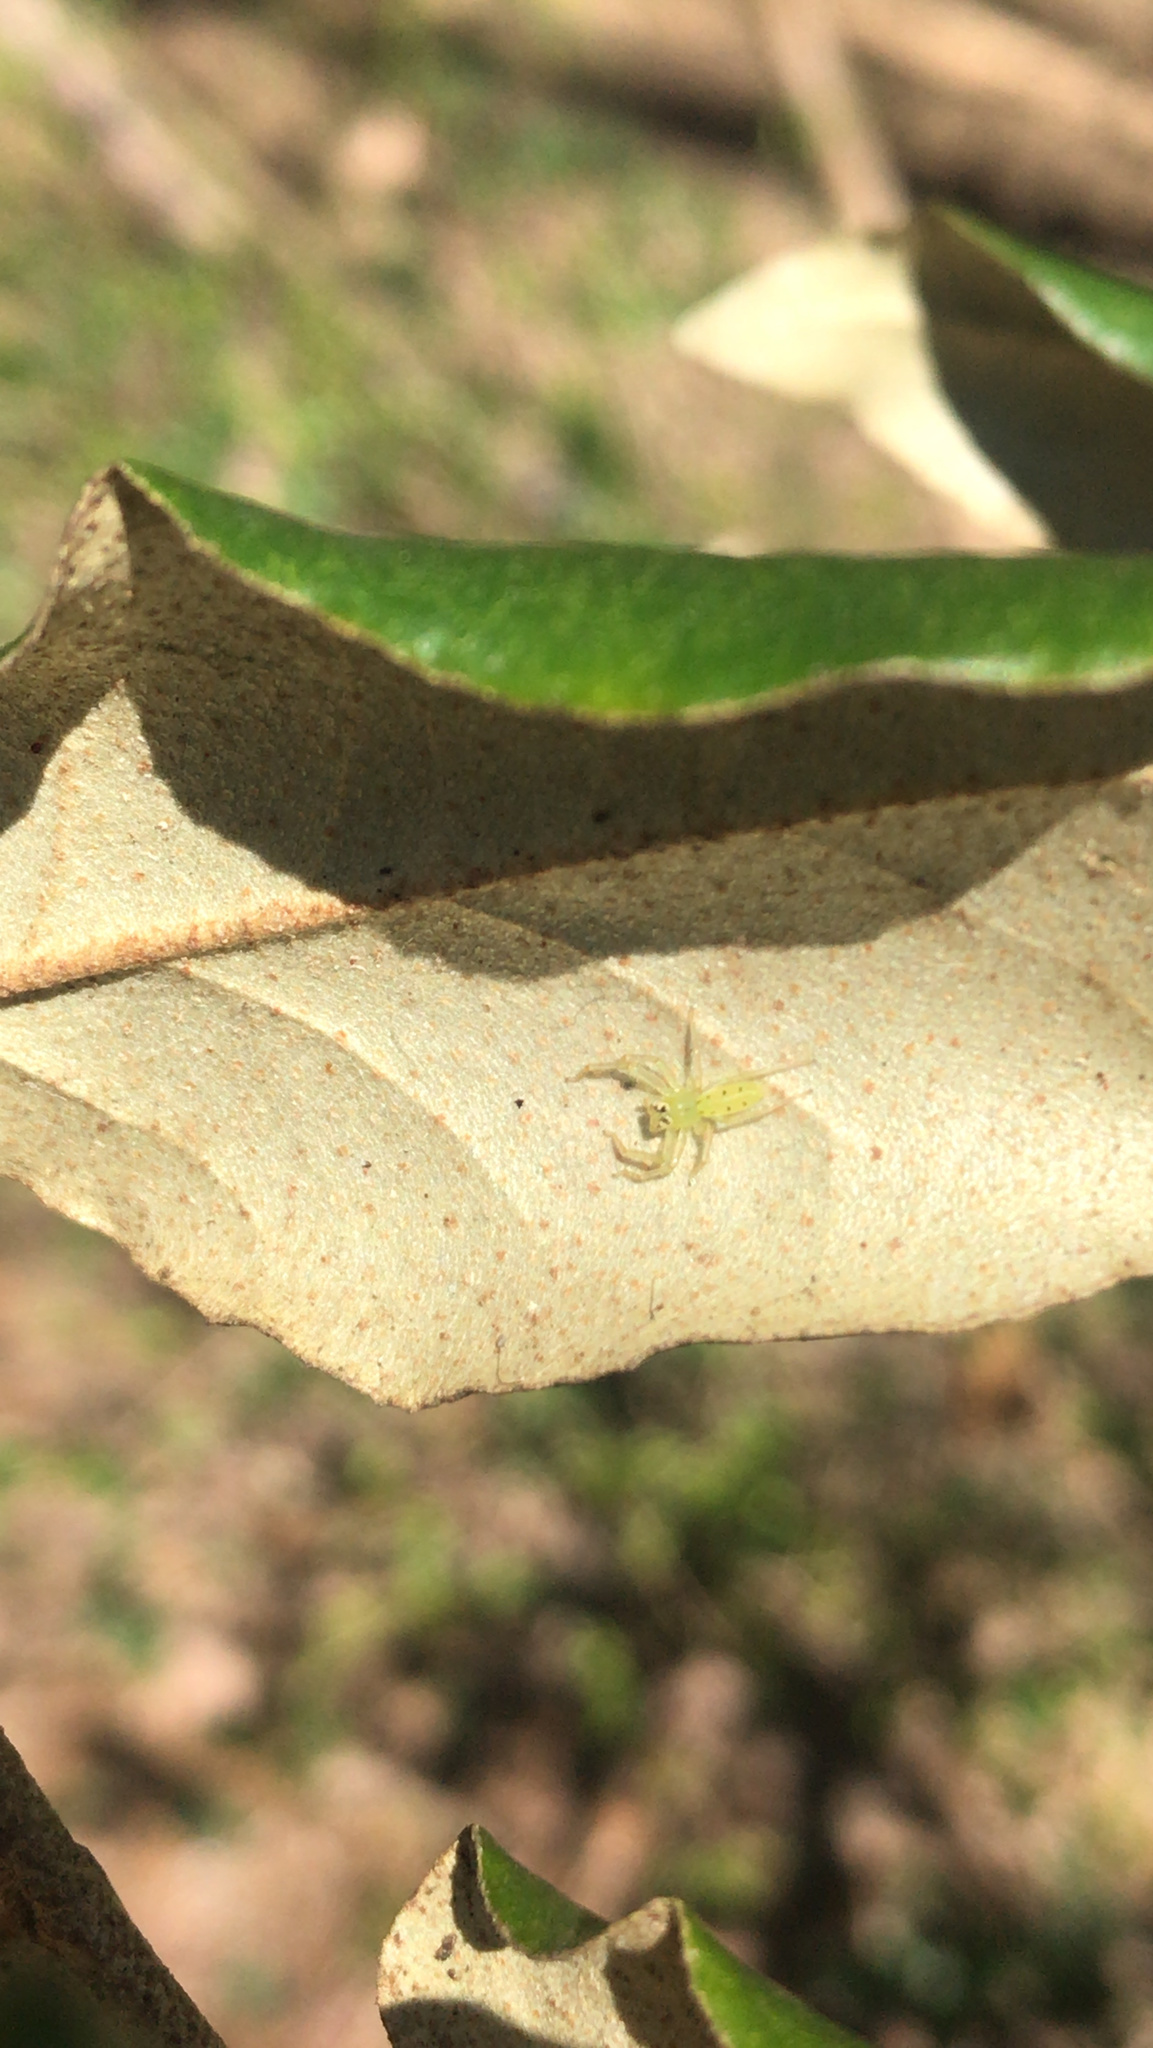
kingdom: Animalia
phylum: Arthropoda
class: Arachnida
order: Araneae
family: Salticidae
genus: Lyssomanes
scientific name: Lyssomanes viridis
